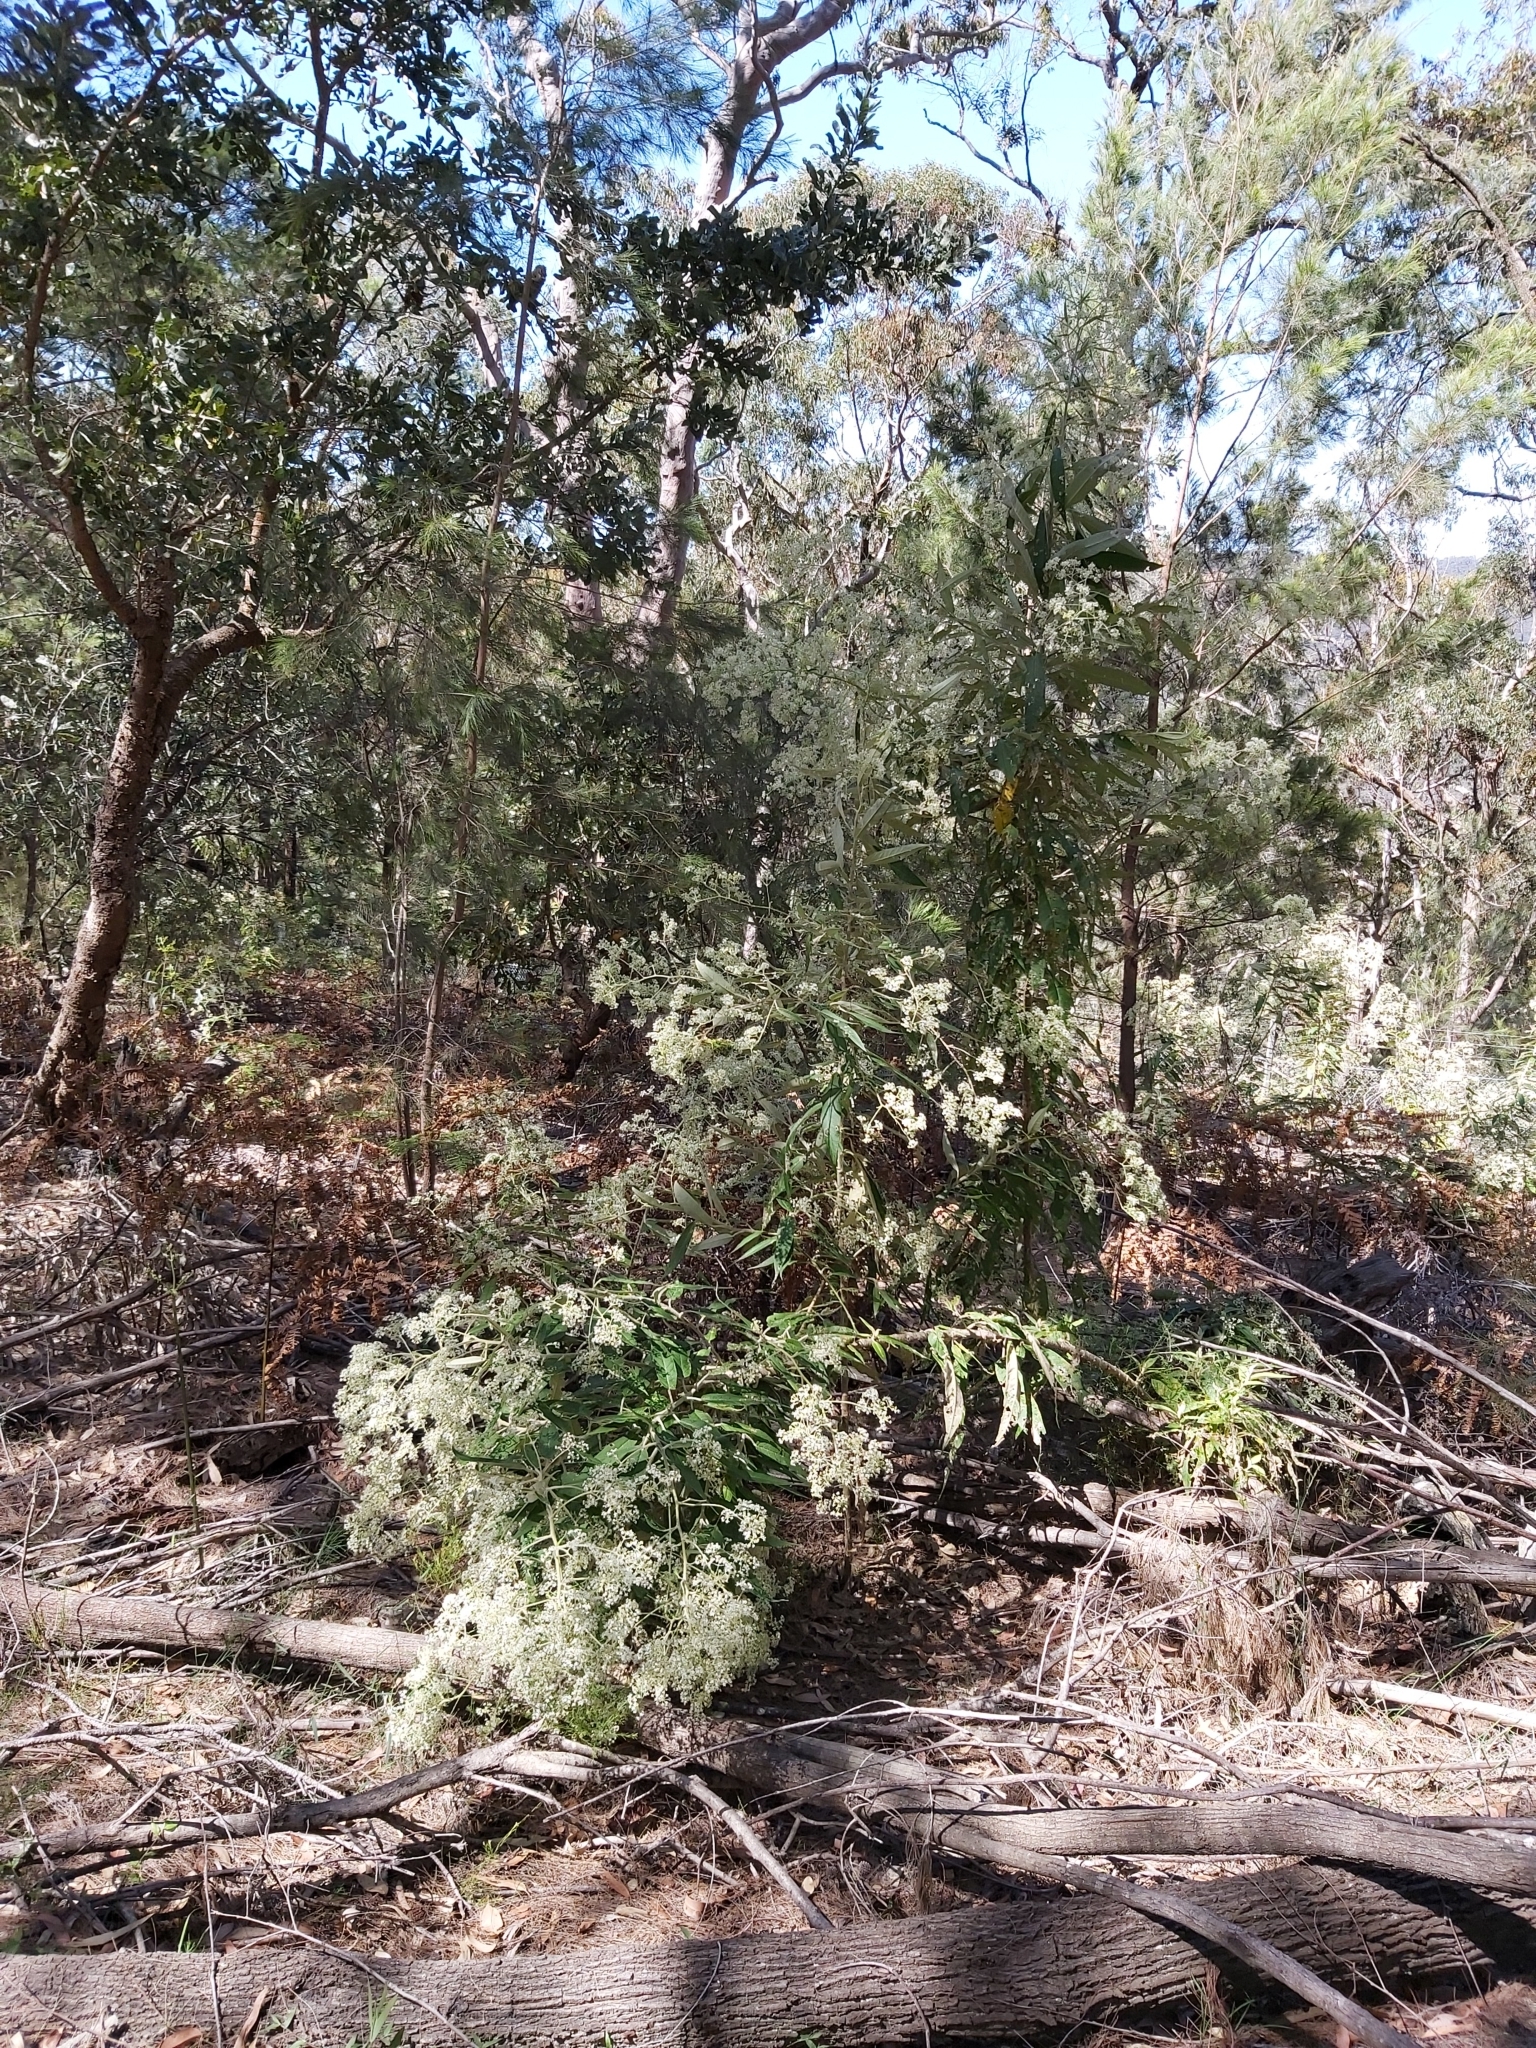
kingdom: Plantae
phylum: Tracheophyta
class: Magnoliopsida
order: Apiales
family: Araliaceae
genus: Astrotricha
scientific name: Astrotricha floccosa
